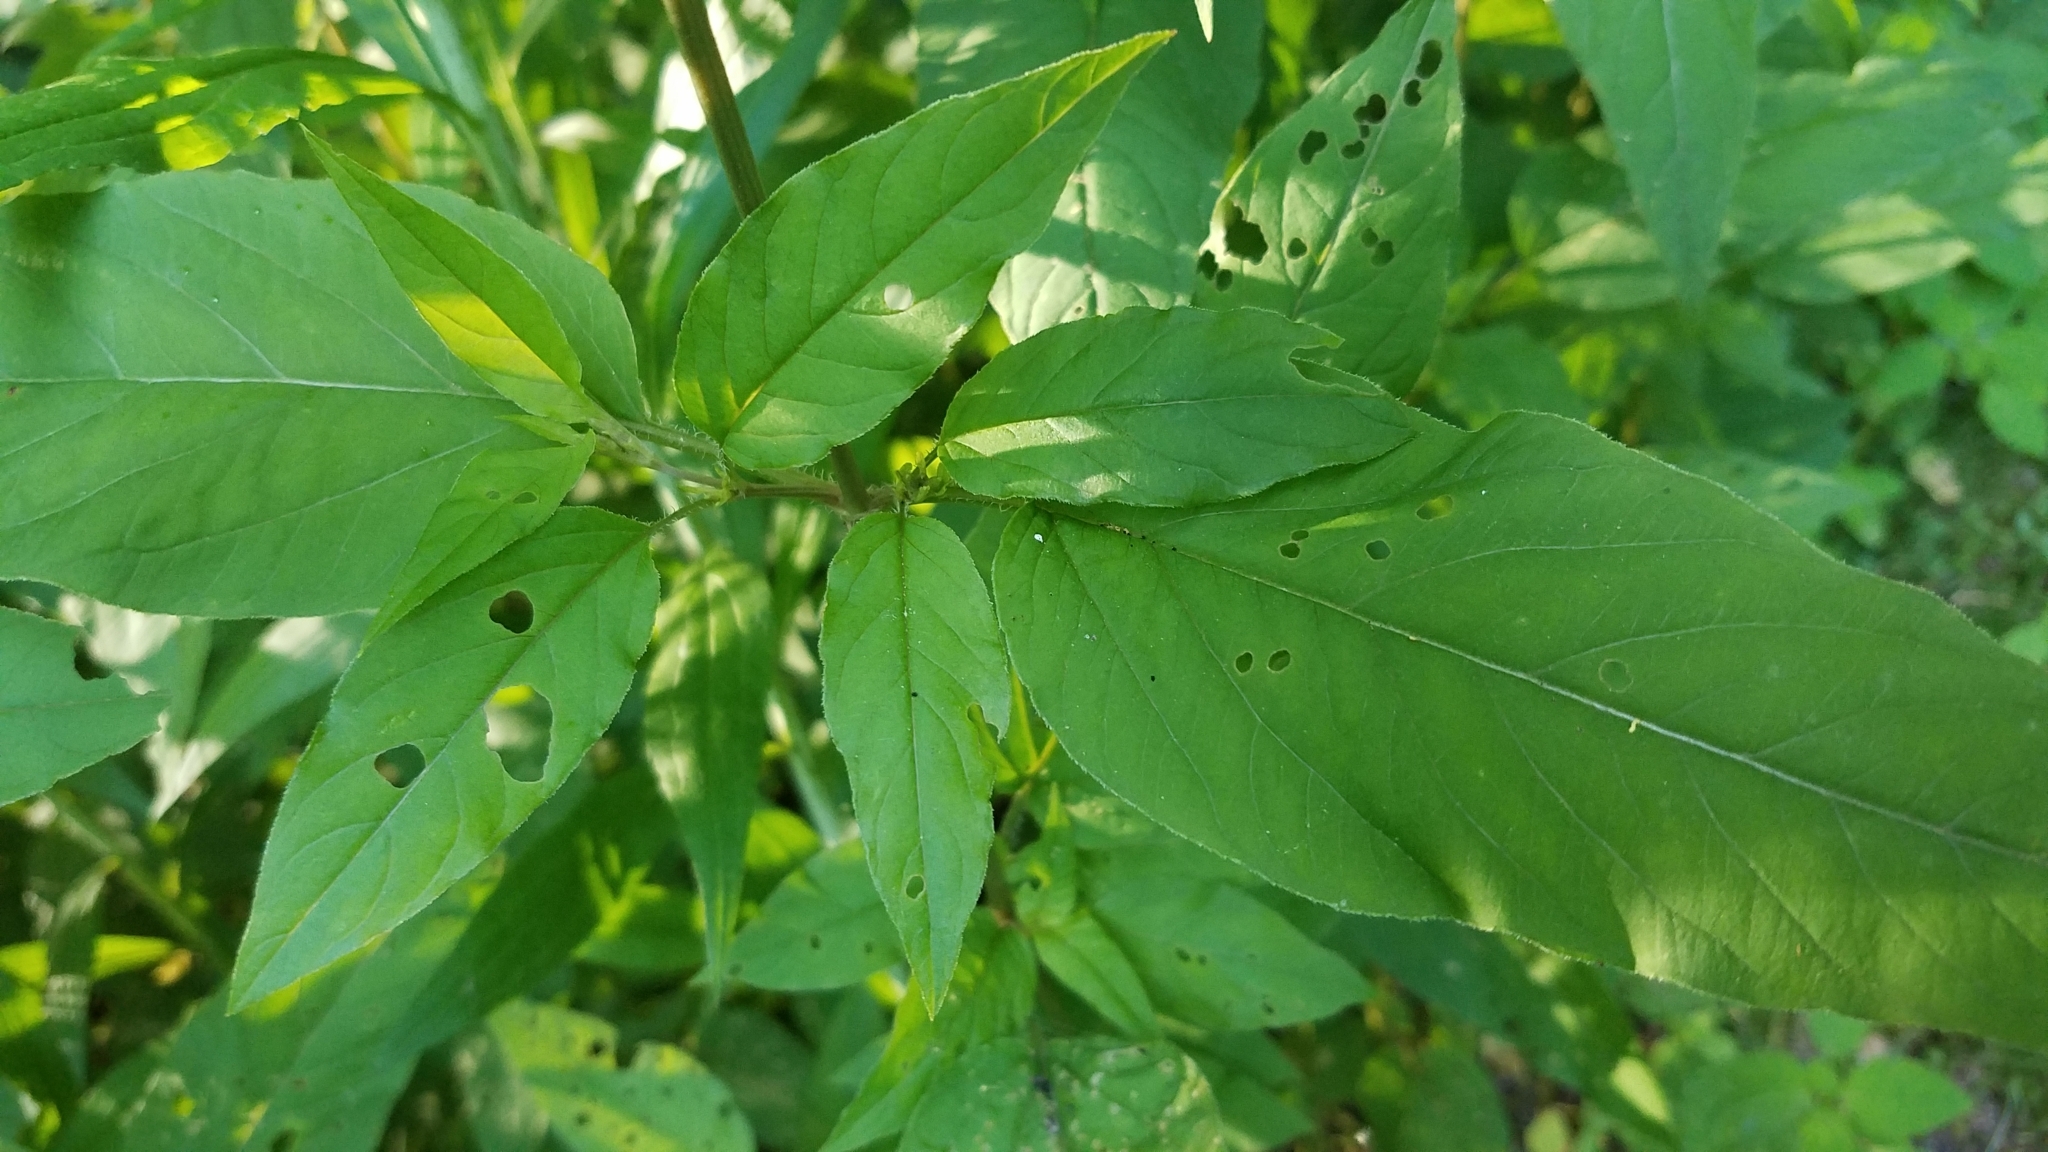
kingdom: Plantae
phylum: Tracheophyta
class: Magnoliopsida
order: Ericales
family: Primulaceae
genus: Lysimachia
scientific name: Lysimachia ciliata
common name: Fringed loosestrife
